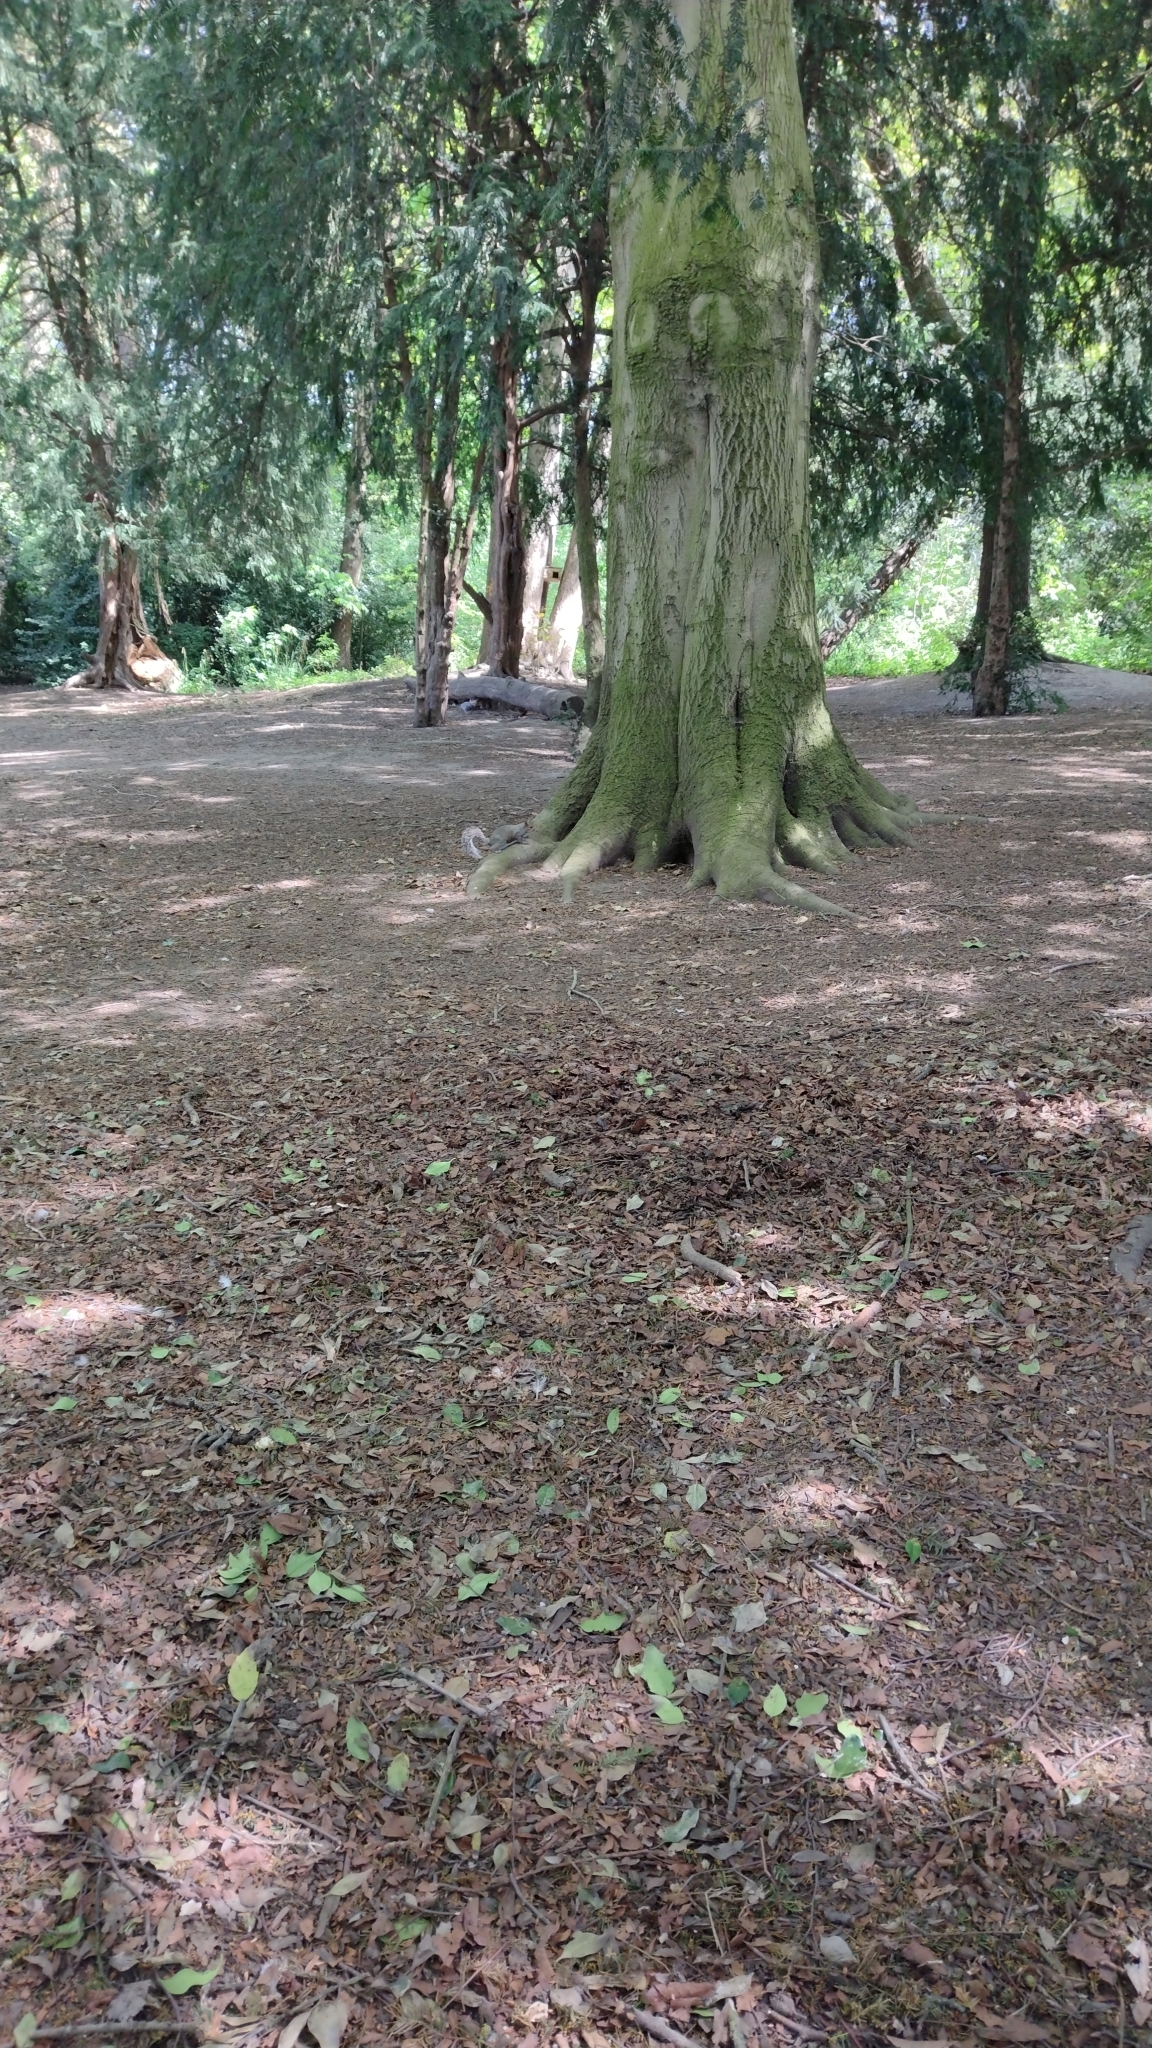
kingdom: Animalia
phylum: Chordata
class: Mammalia
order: Rodentia
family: Sciuridae
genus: Sciurus
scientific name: Sciurus carolinensis
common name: Eastern gray squirrel
